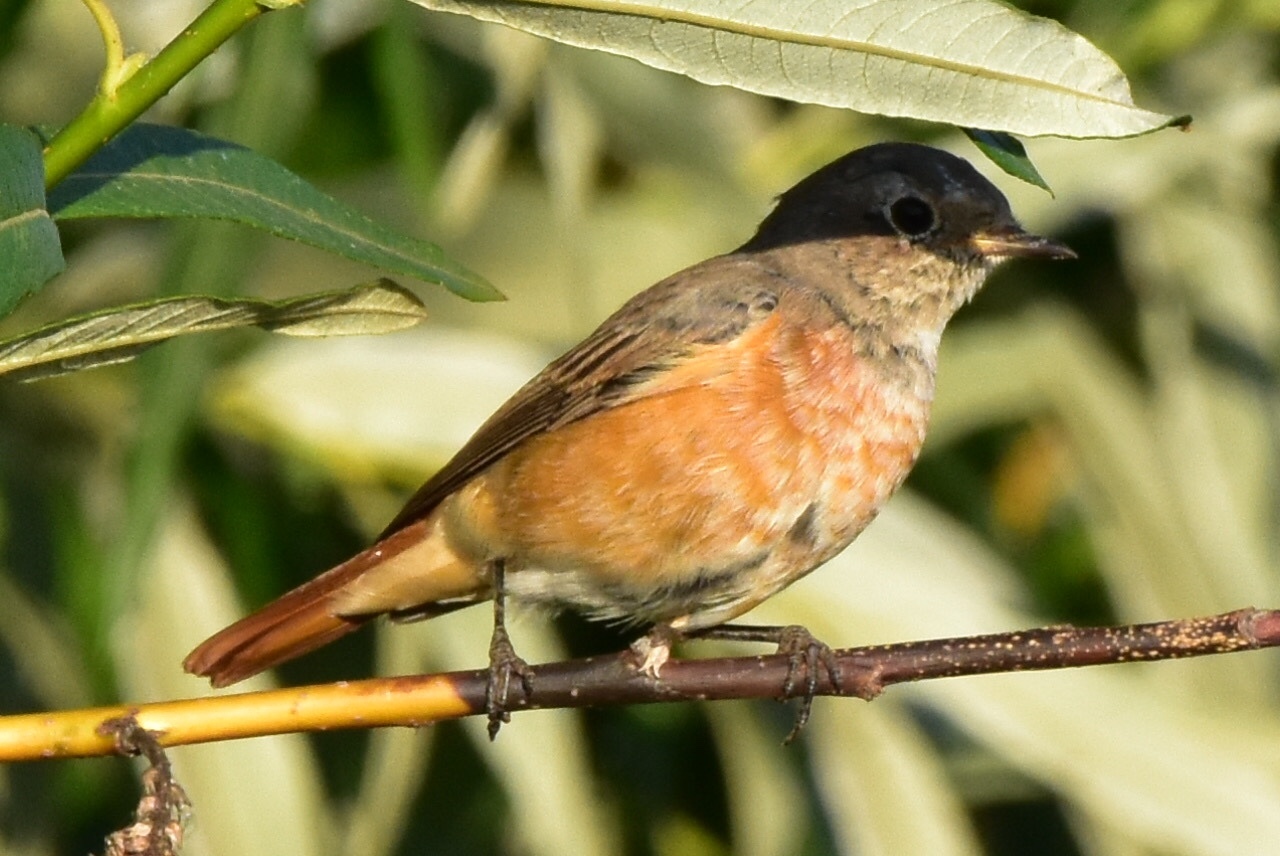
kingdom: Animalia
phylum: Chordata
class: Aves
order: Passeriformes
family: Muscicapidae
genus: Phoenicurus
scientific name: Phoenicurus phoenicurus
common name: Common redstart
